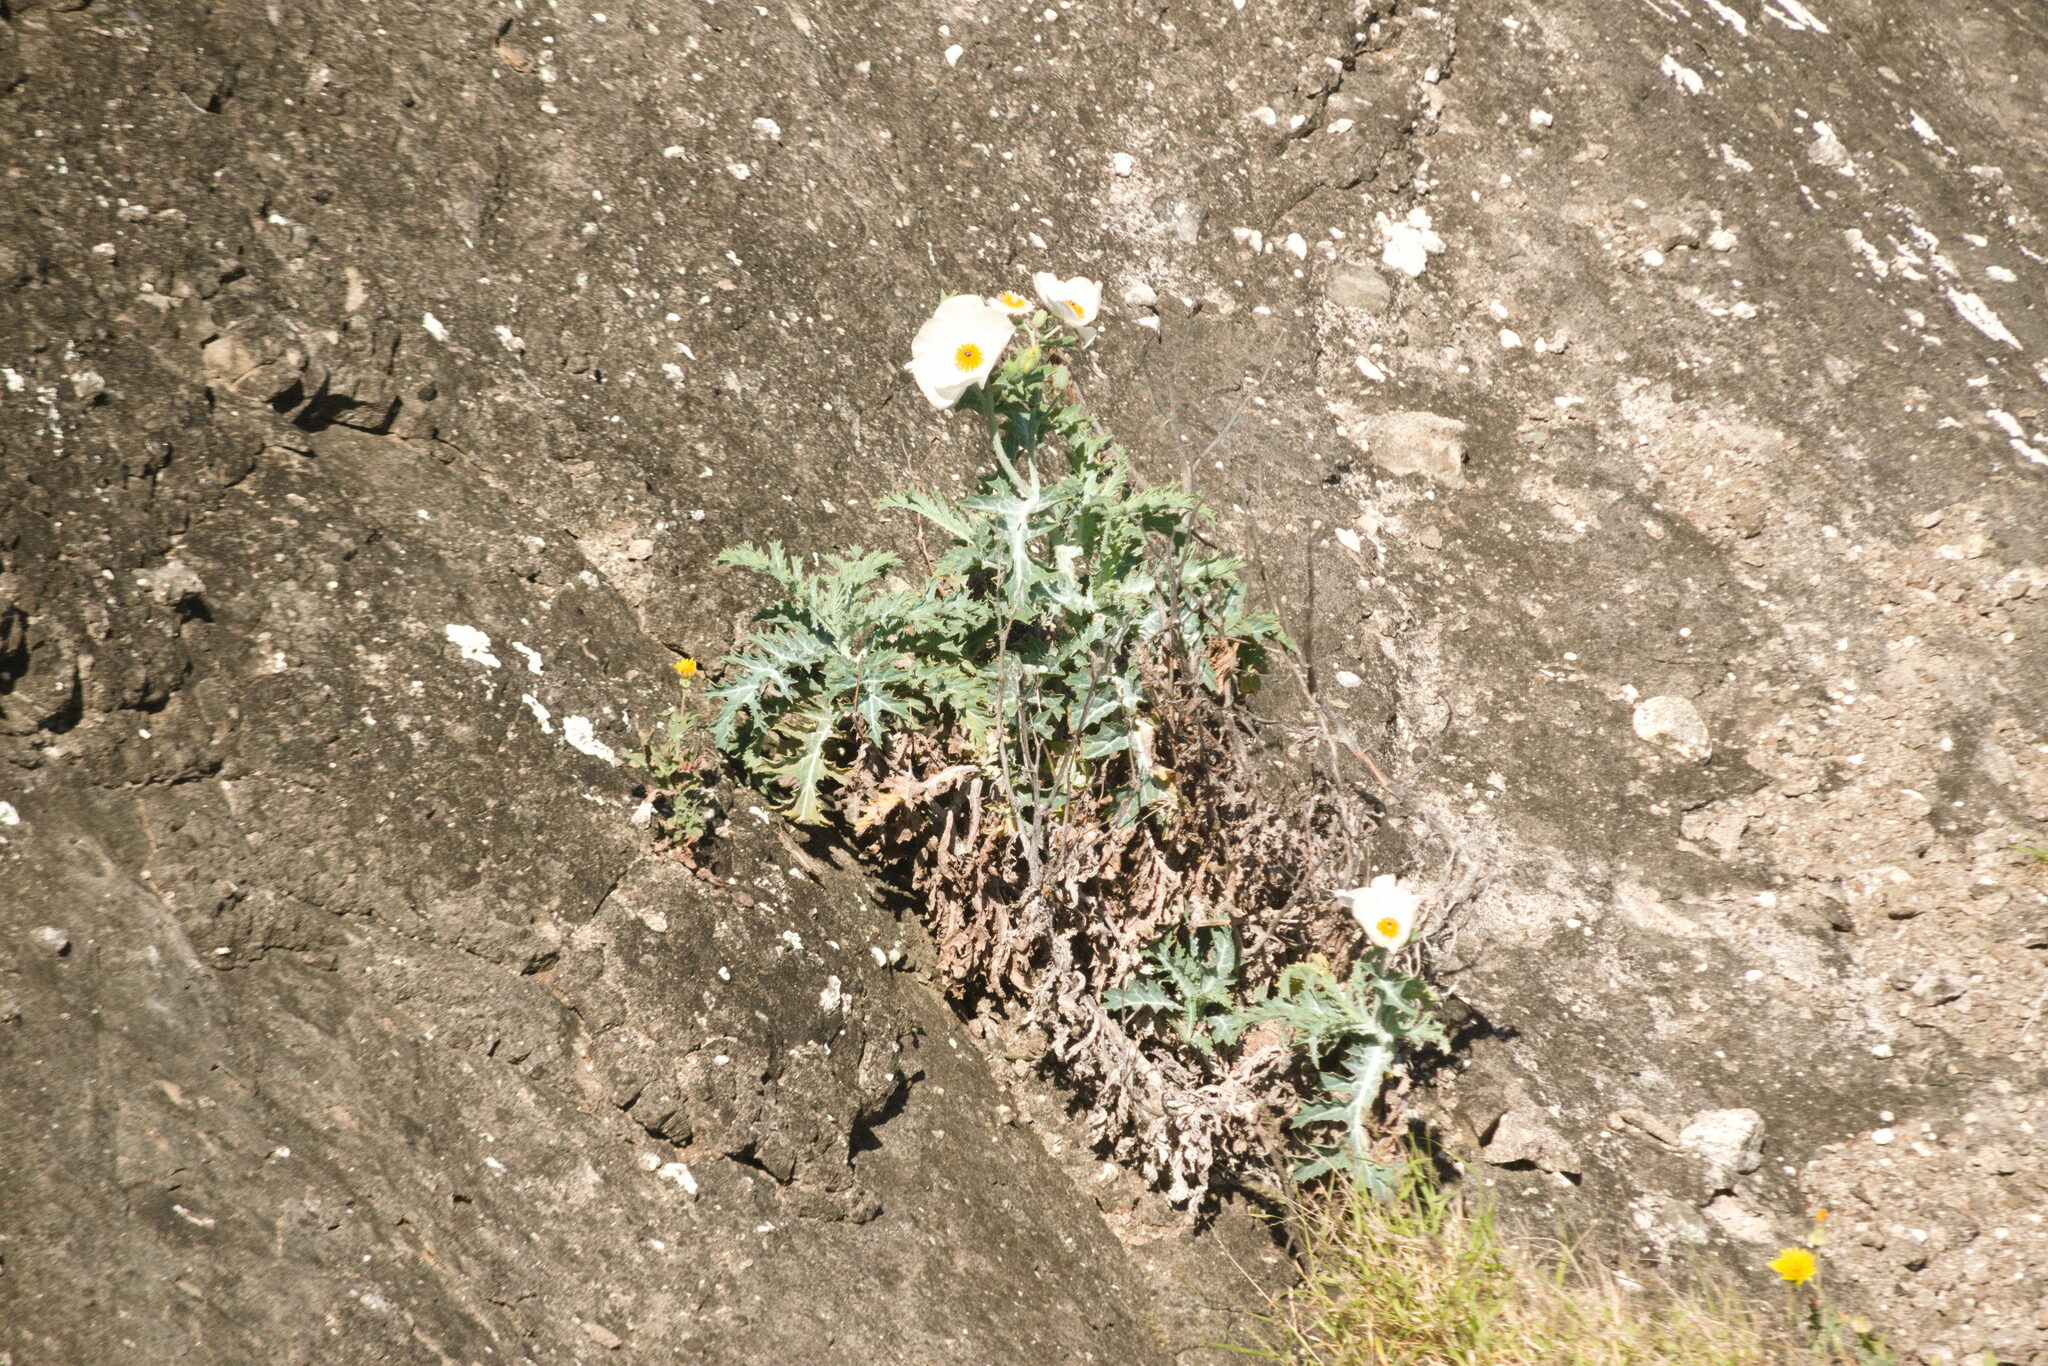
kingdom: Plantae
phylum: Tracheophyta
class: Magnoliopsida
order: Ranunculales
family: Papaveraceae
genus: Argemone
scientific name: Argemone glauca
